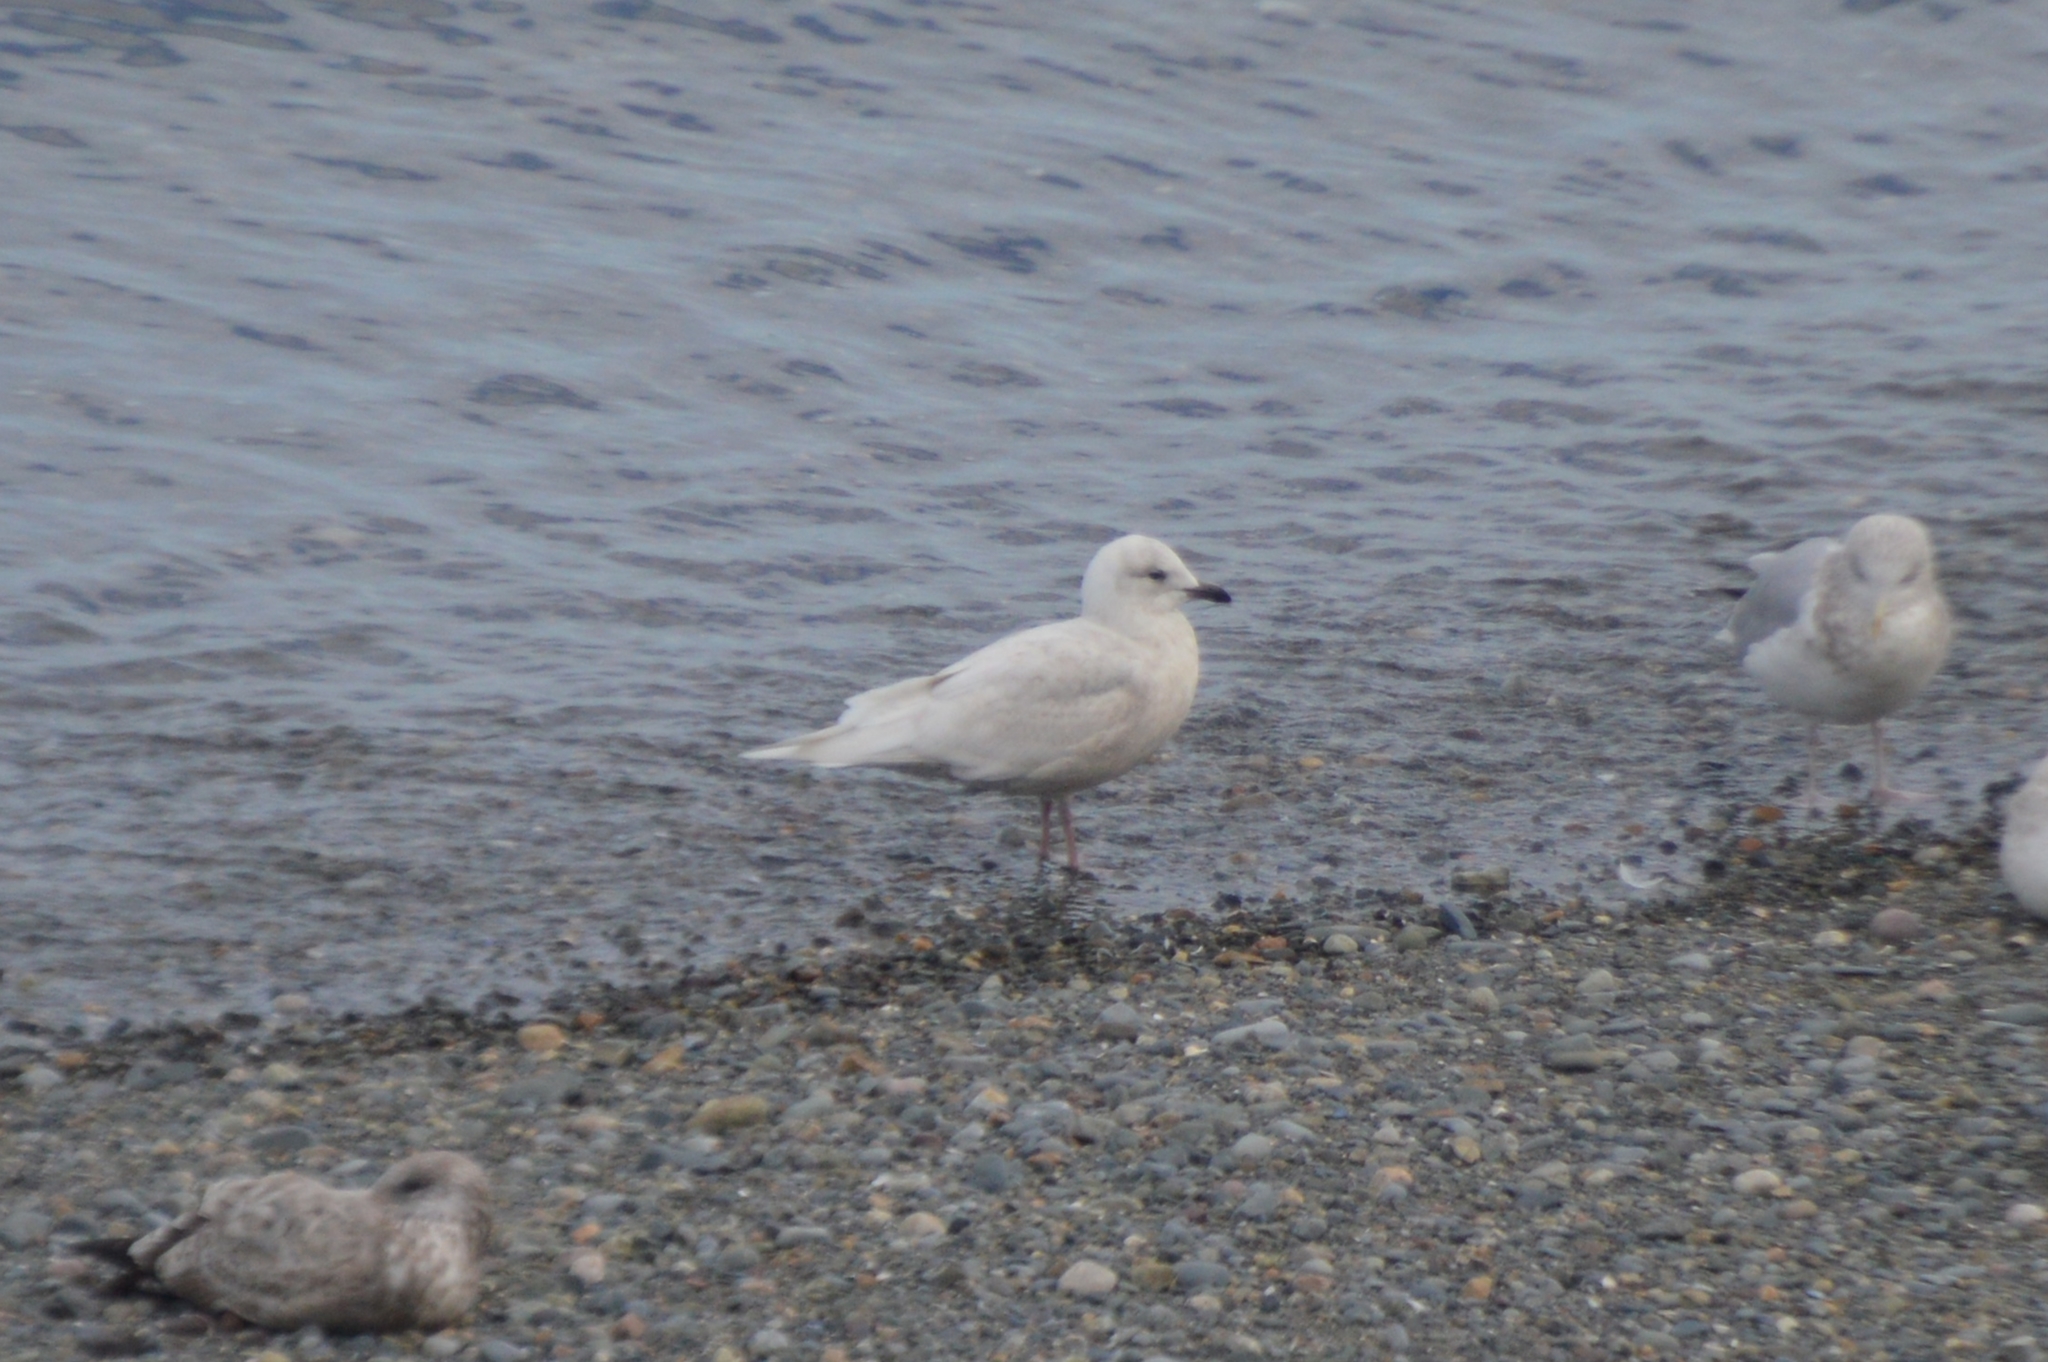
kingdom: Animalia
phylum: Chordata
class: Aves
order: Charadriiformes
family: Laridae
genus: Larus
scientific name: Larus glaucoides
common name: Iceland gull
